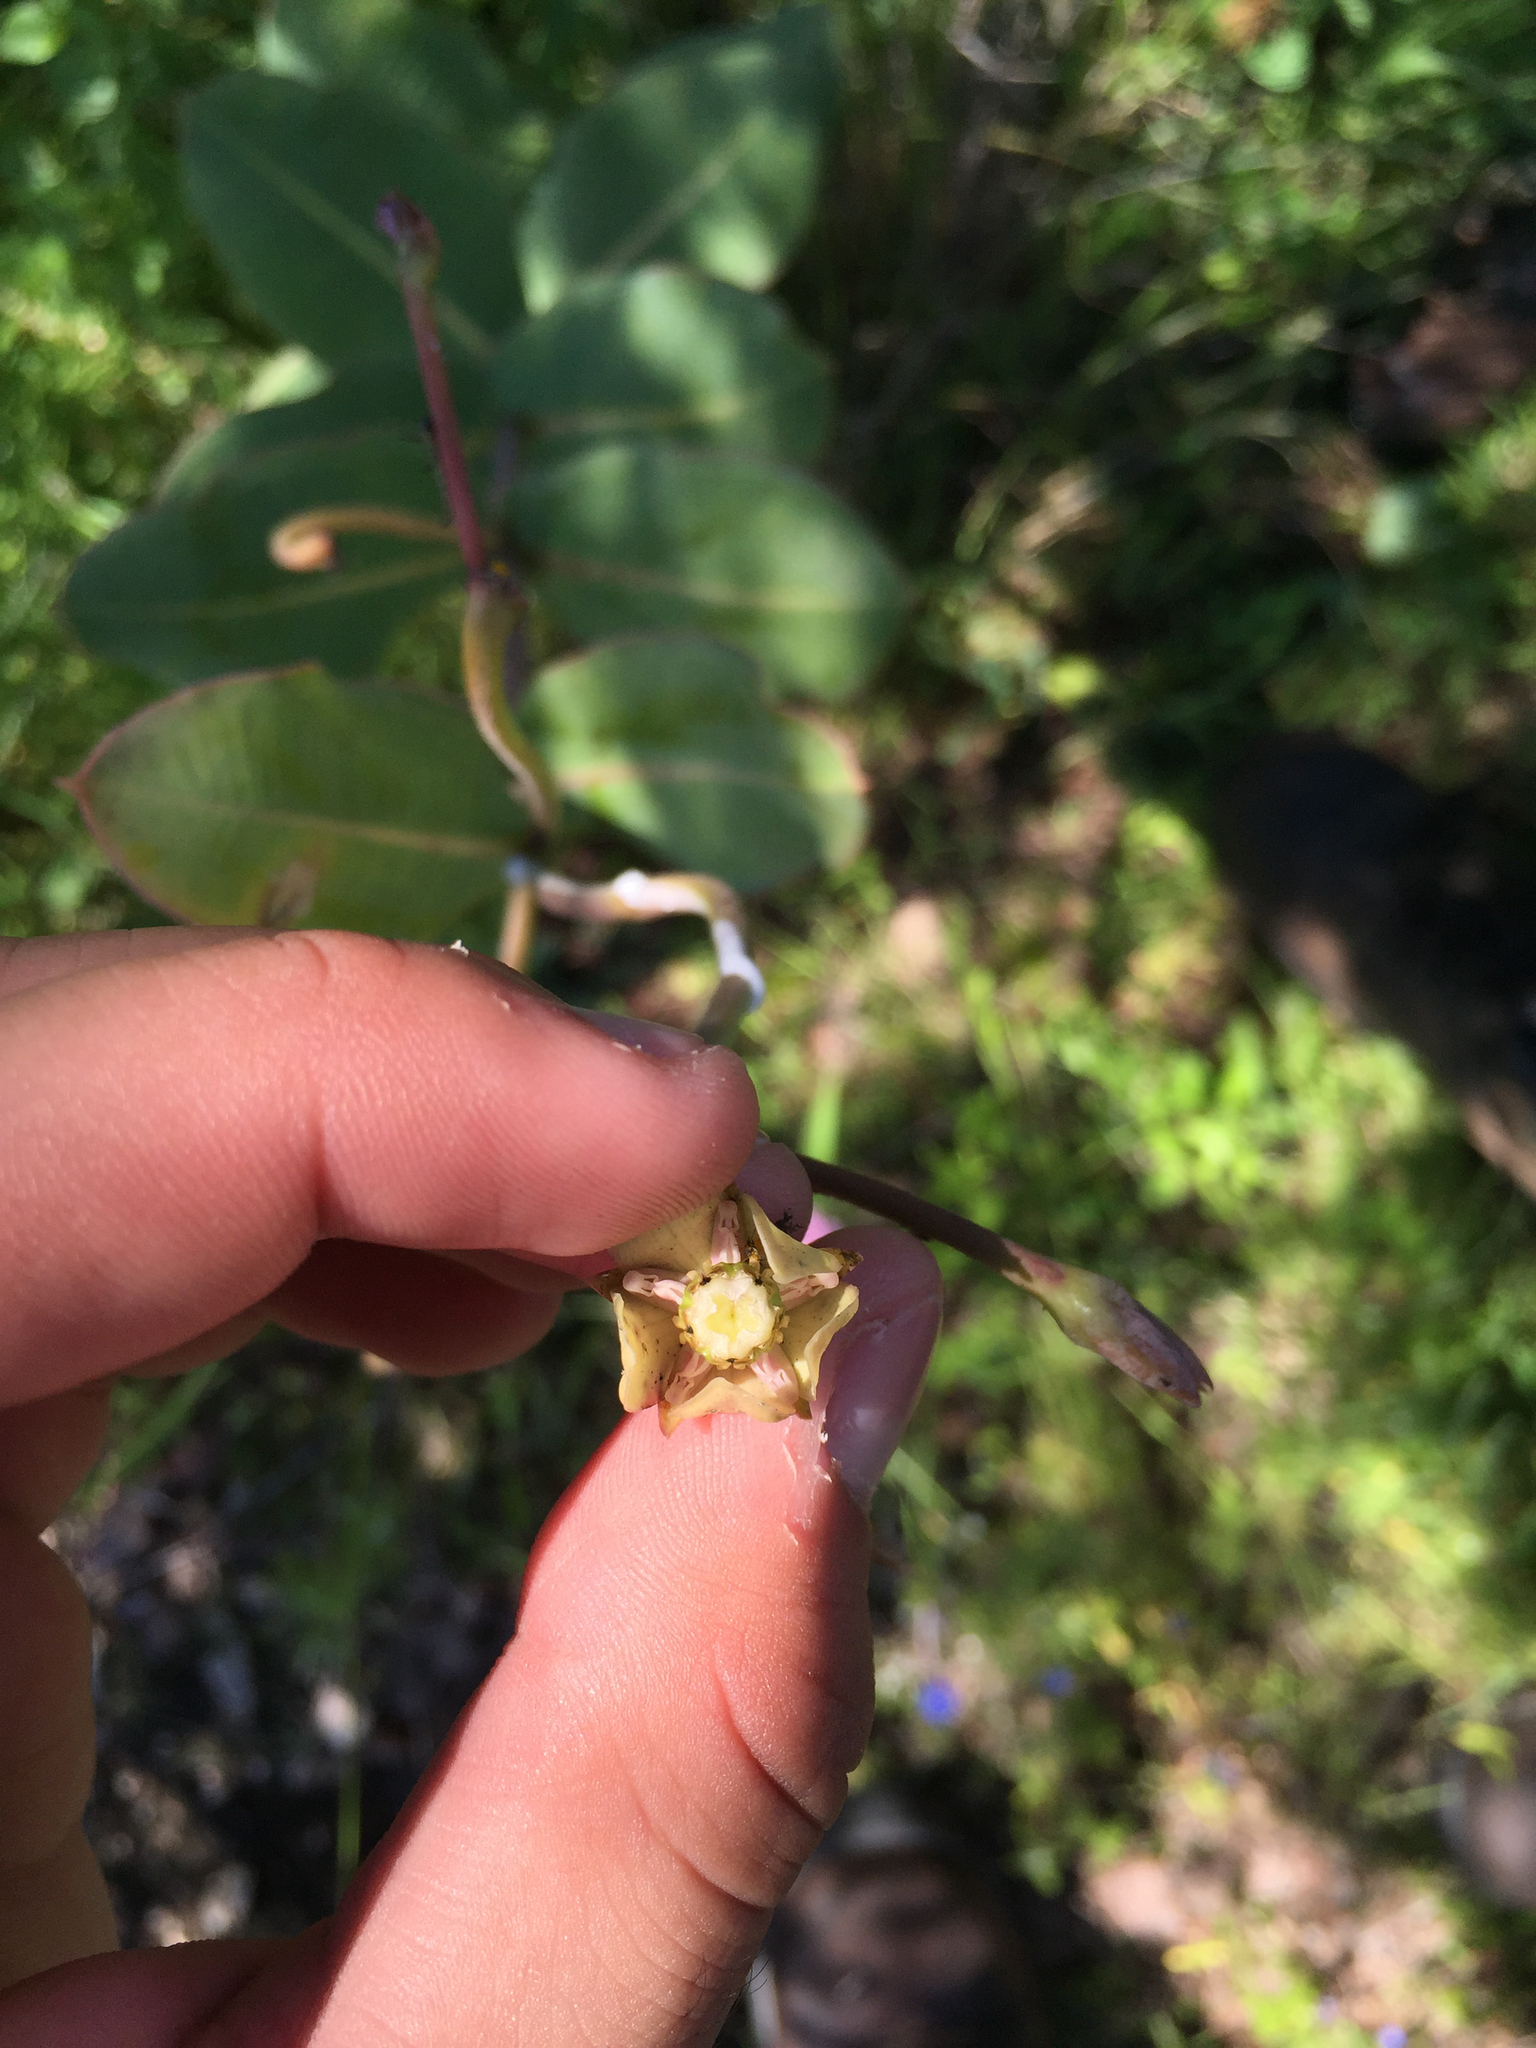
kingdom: Plantae
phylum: Tracheophyta
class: Magnoliopsida
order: Gentianales
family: Apocynaceae
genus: Asclepias
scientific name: Asclepias mirifica
